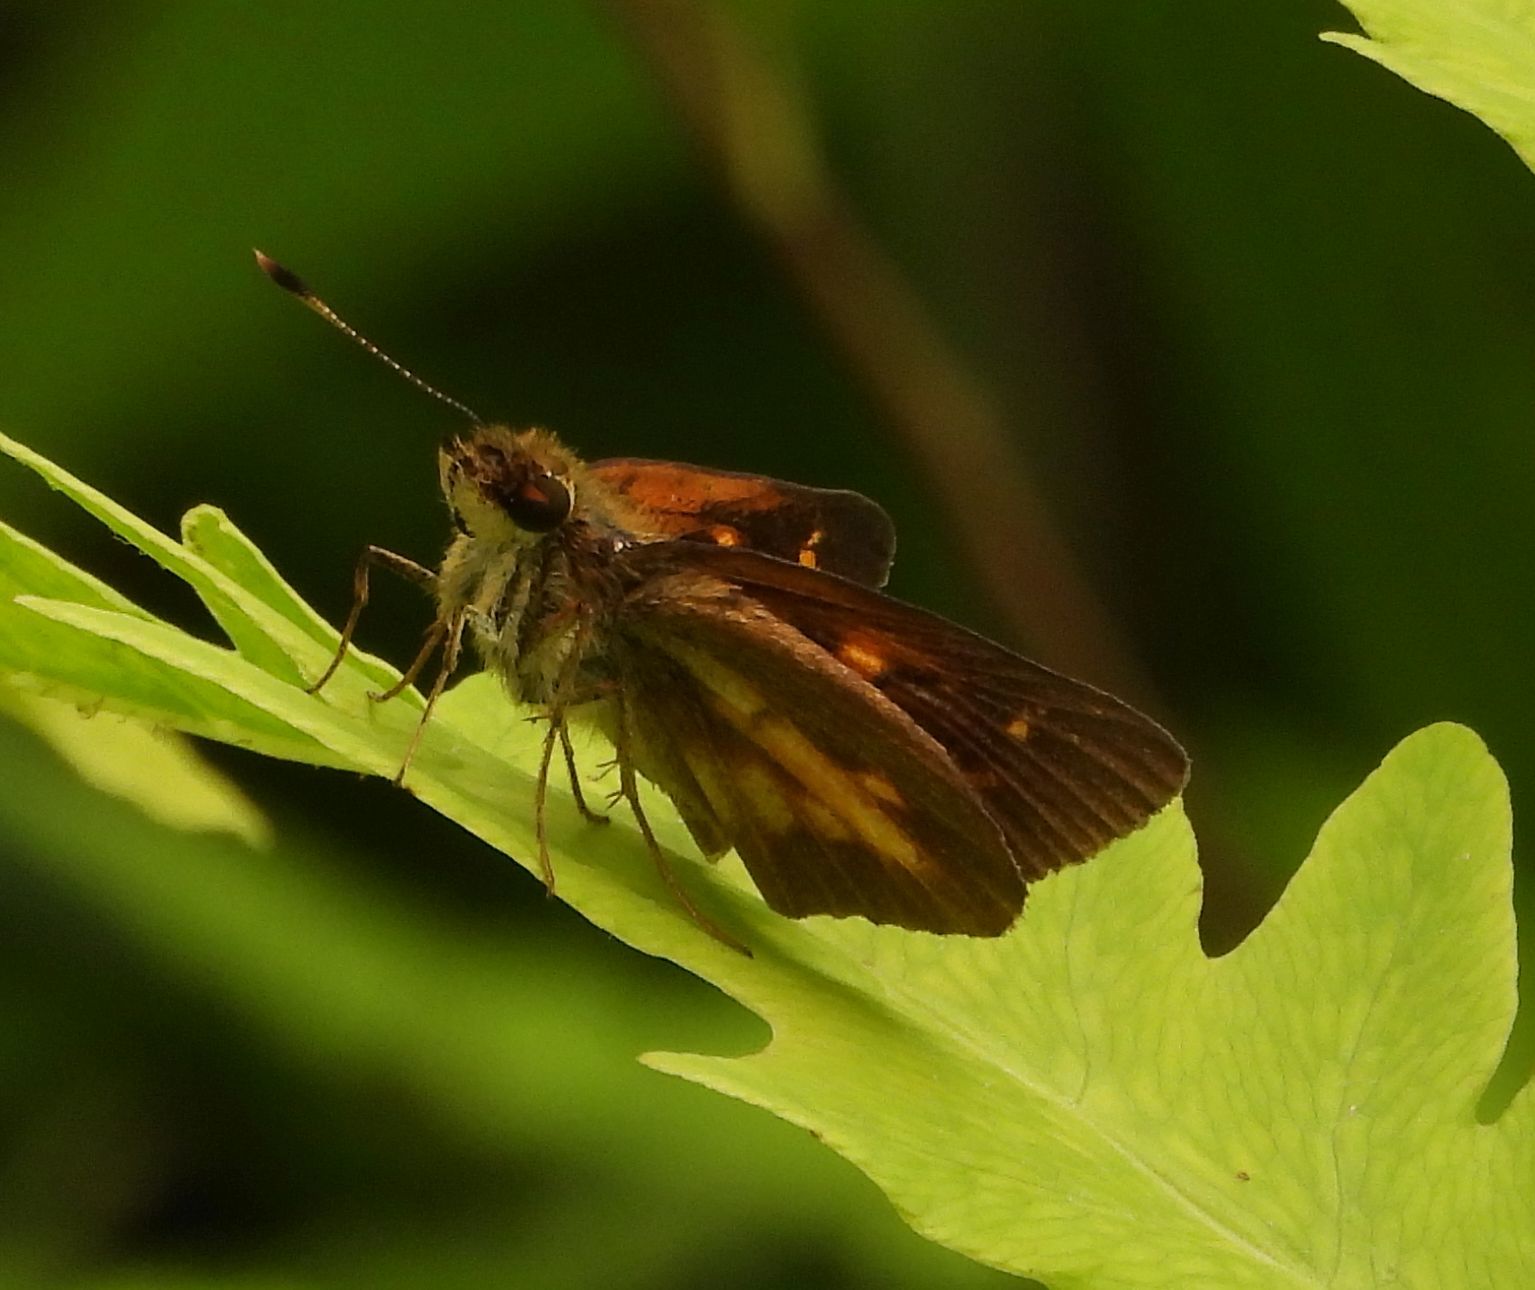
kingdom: Animalia
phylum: Arthropoda
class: Insecta
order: Lepidoptera
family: Hesperiidae
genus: Poanes
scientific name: Poanes viator
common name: Broad-winged skipper
